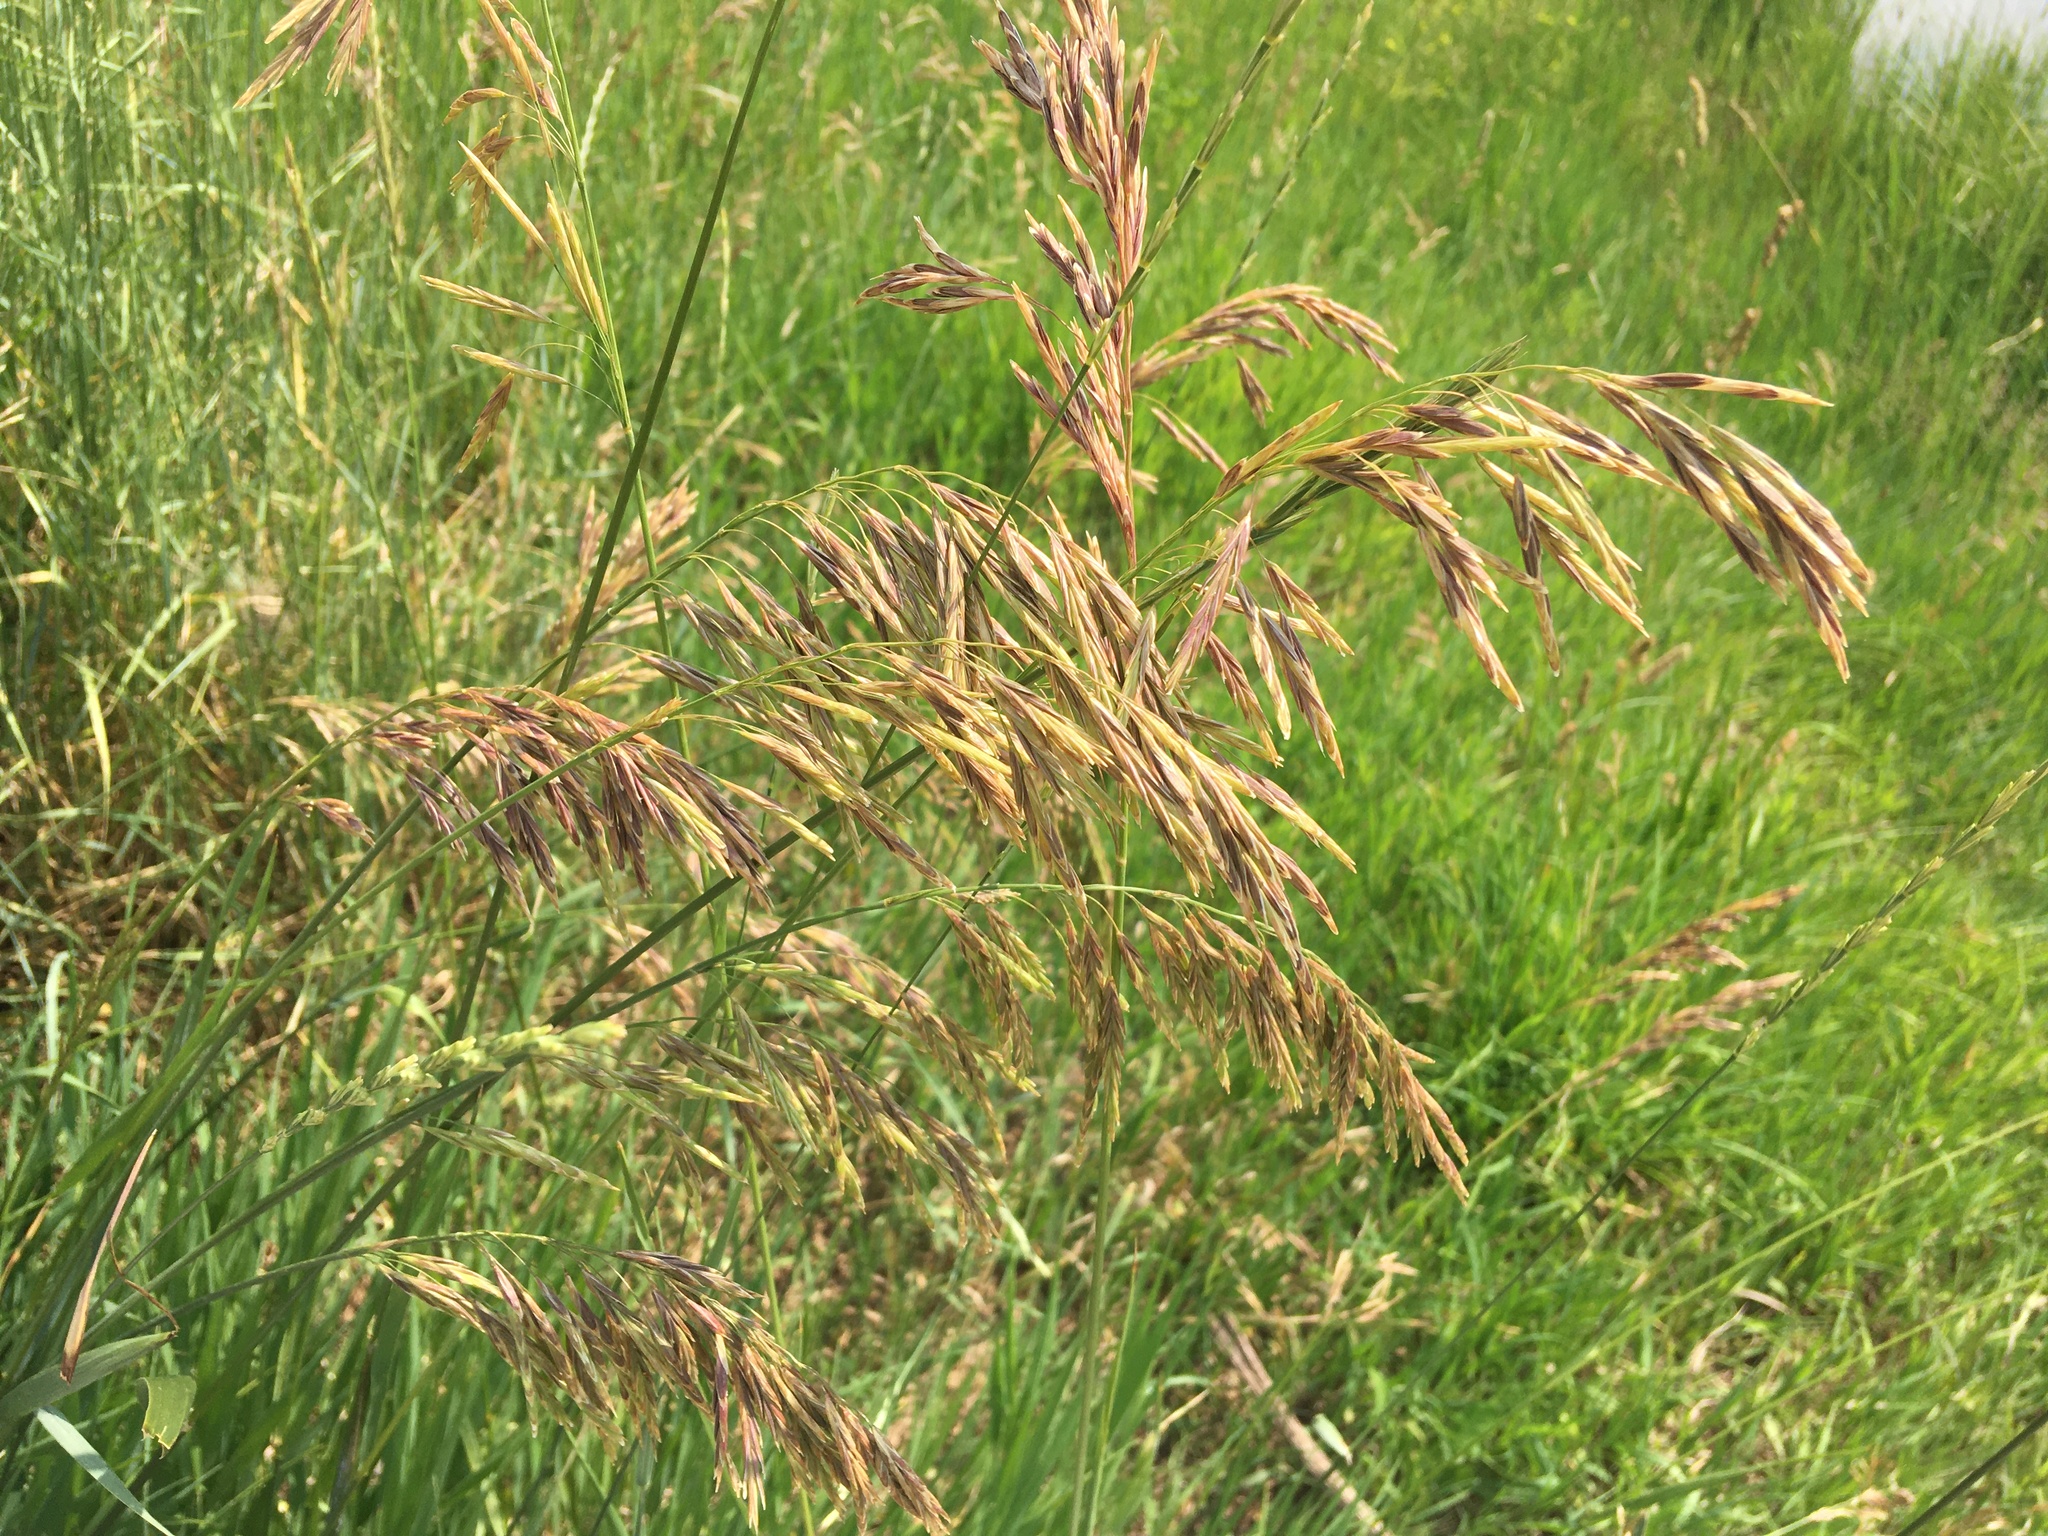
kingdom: Plantae
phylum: Tracheophyta
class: Liliopsida
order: Poales
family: Poaceae
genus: Bromus
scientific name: Bromus inermis
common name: Smooth brome
